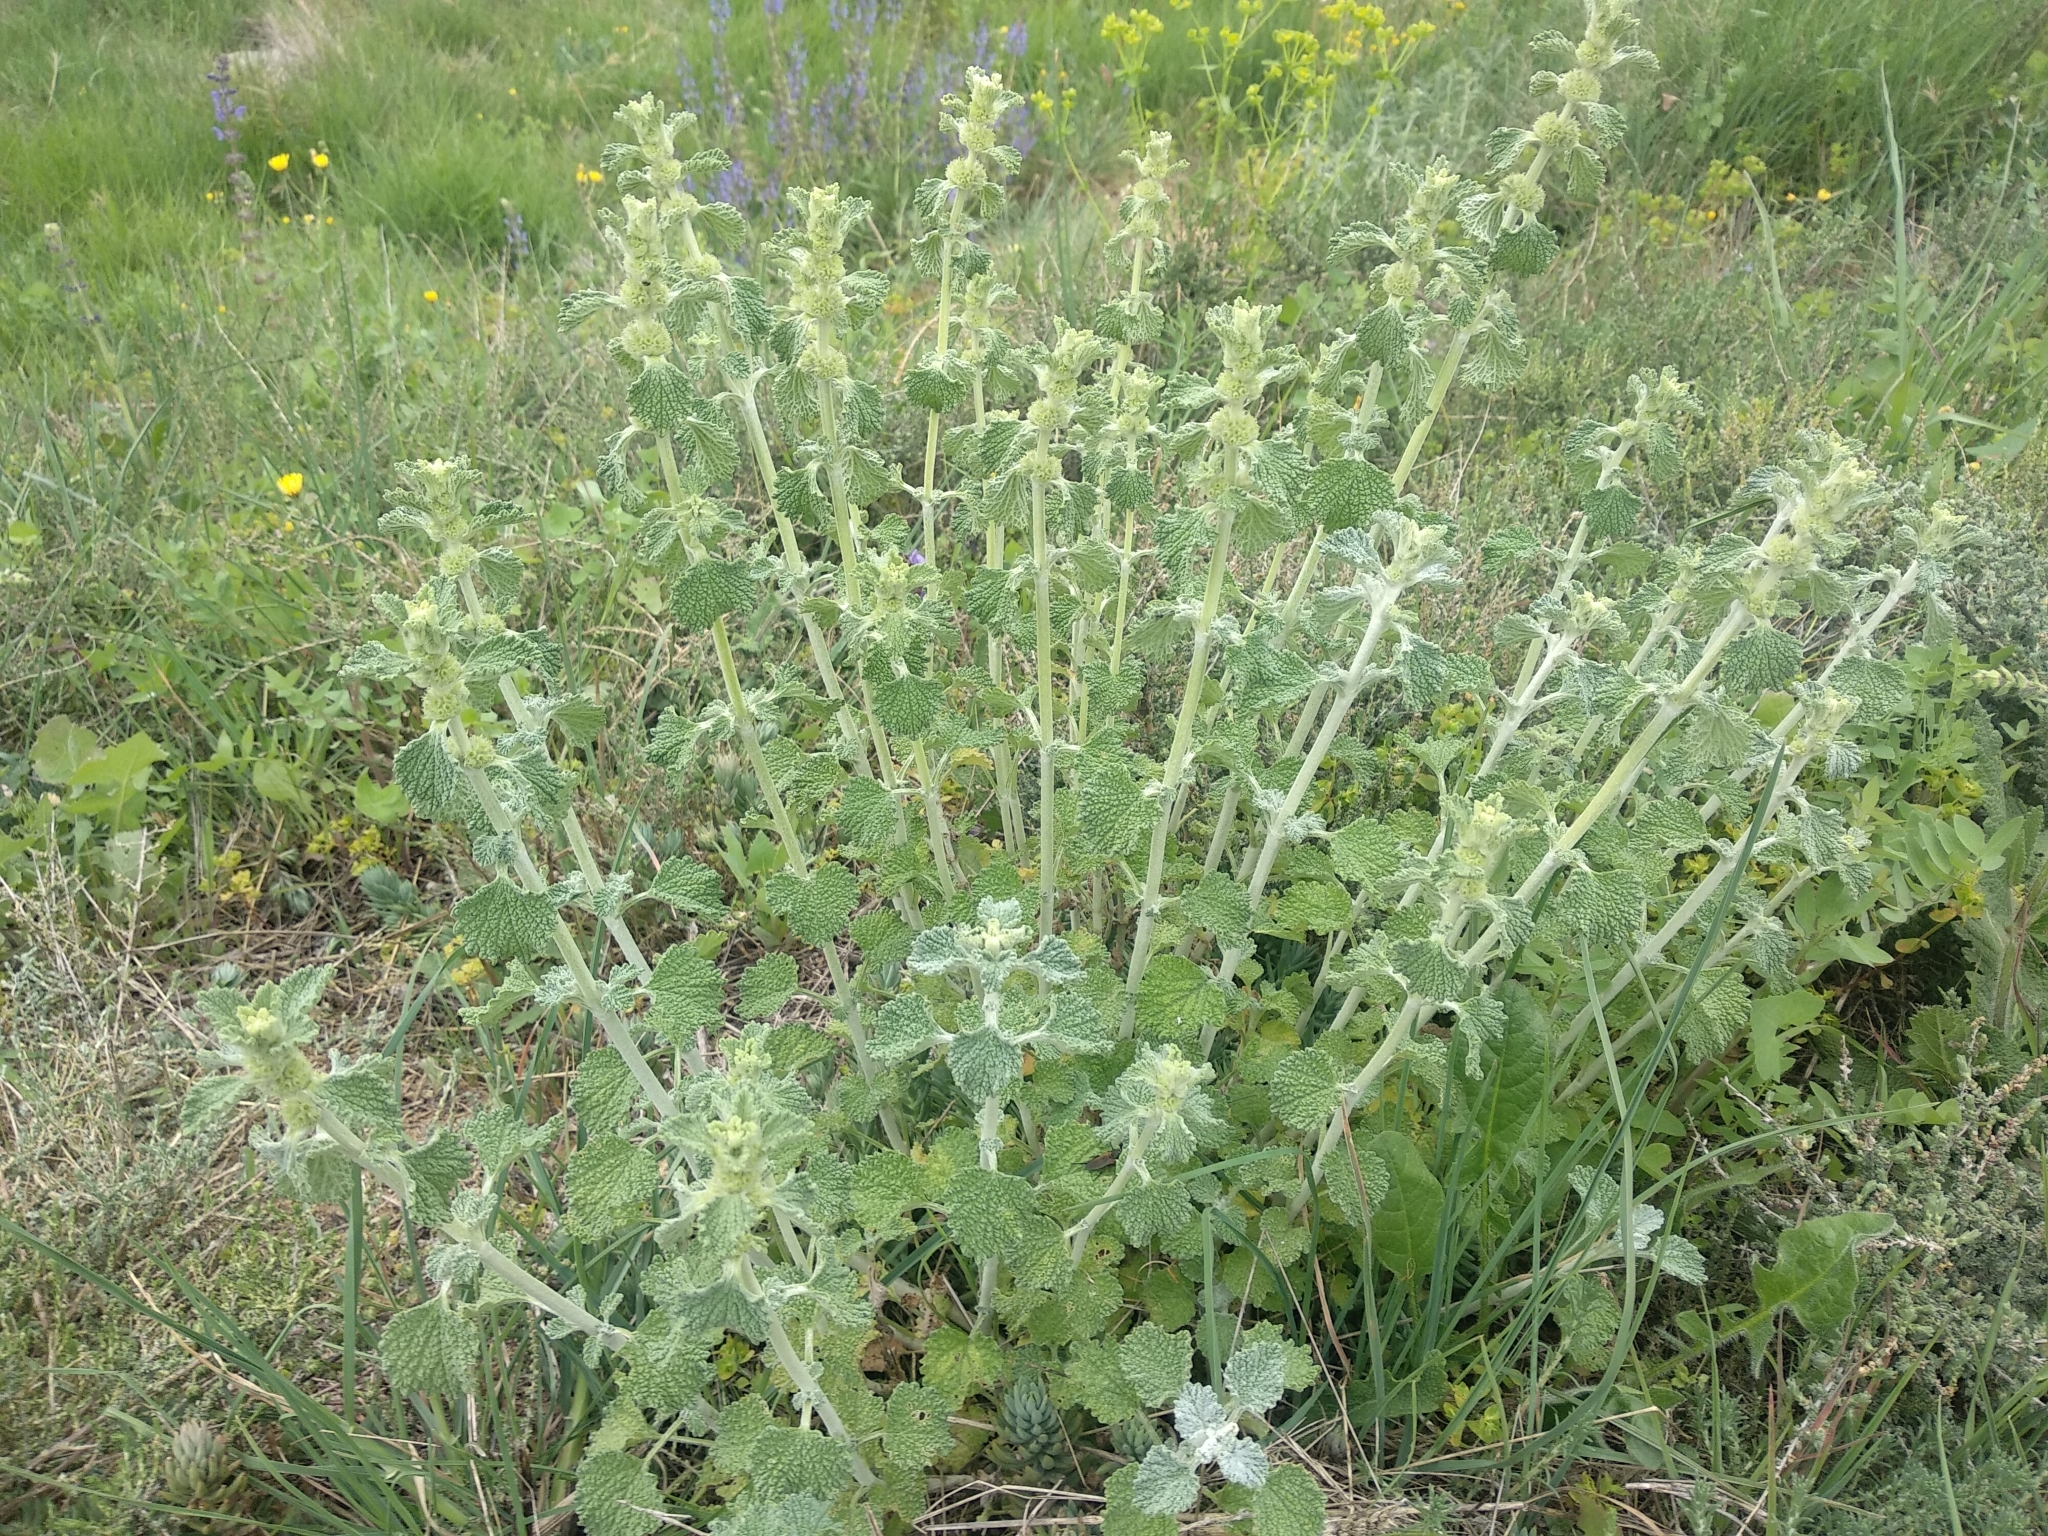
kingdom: Plantae
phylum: Tracheophyta
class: Magnoliopsida
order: Lamiales
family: Lamiaceae
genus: Marrubium
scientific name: Marrubium vulgare
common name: Horehound
